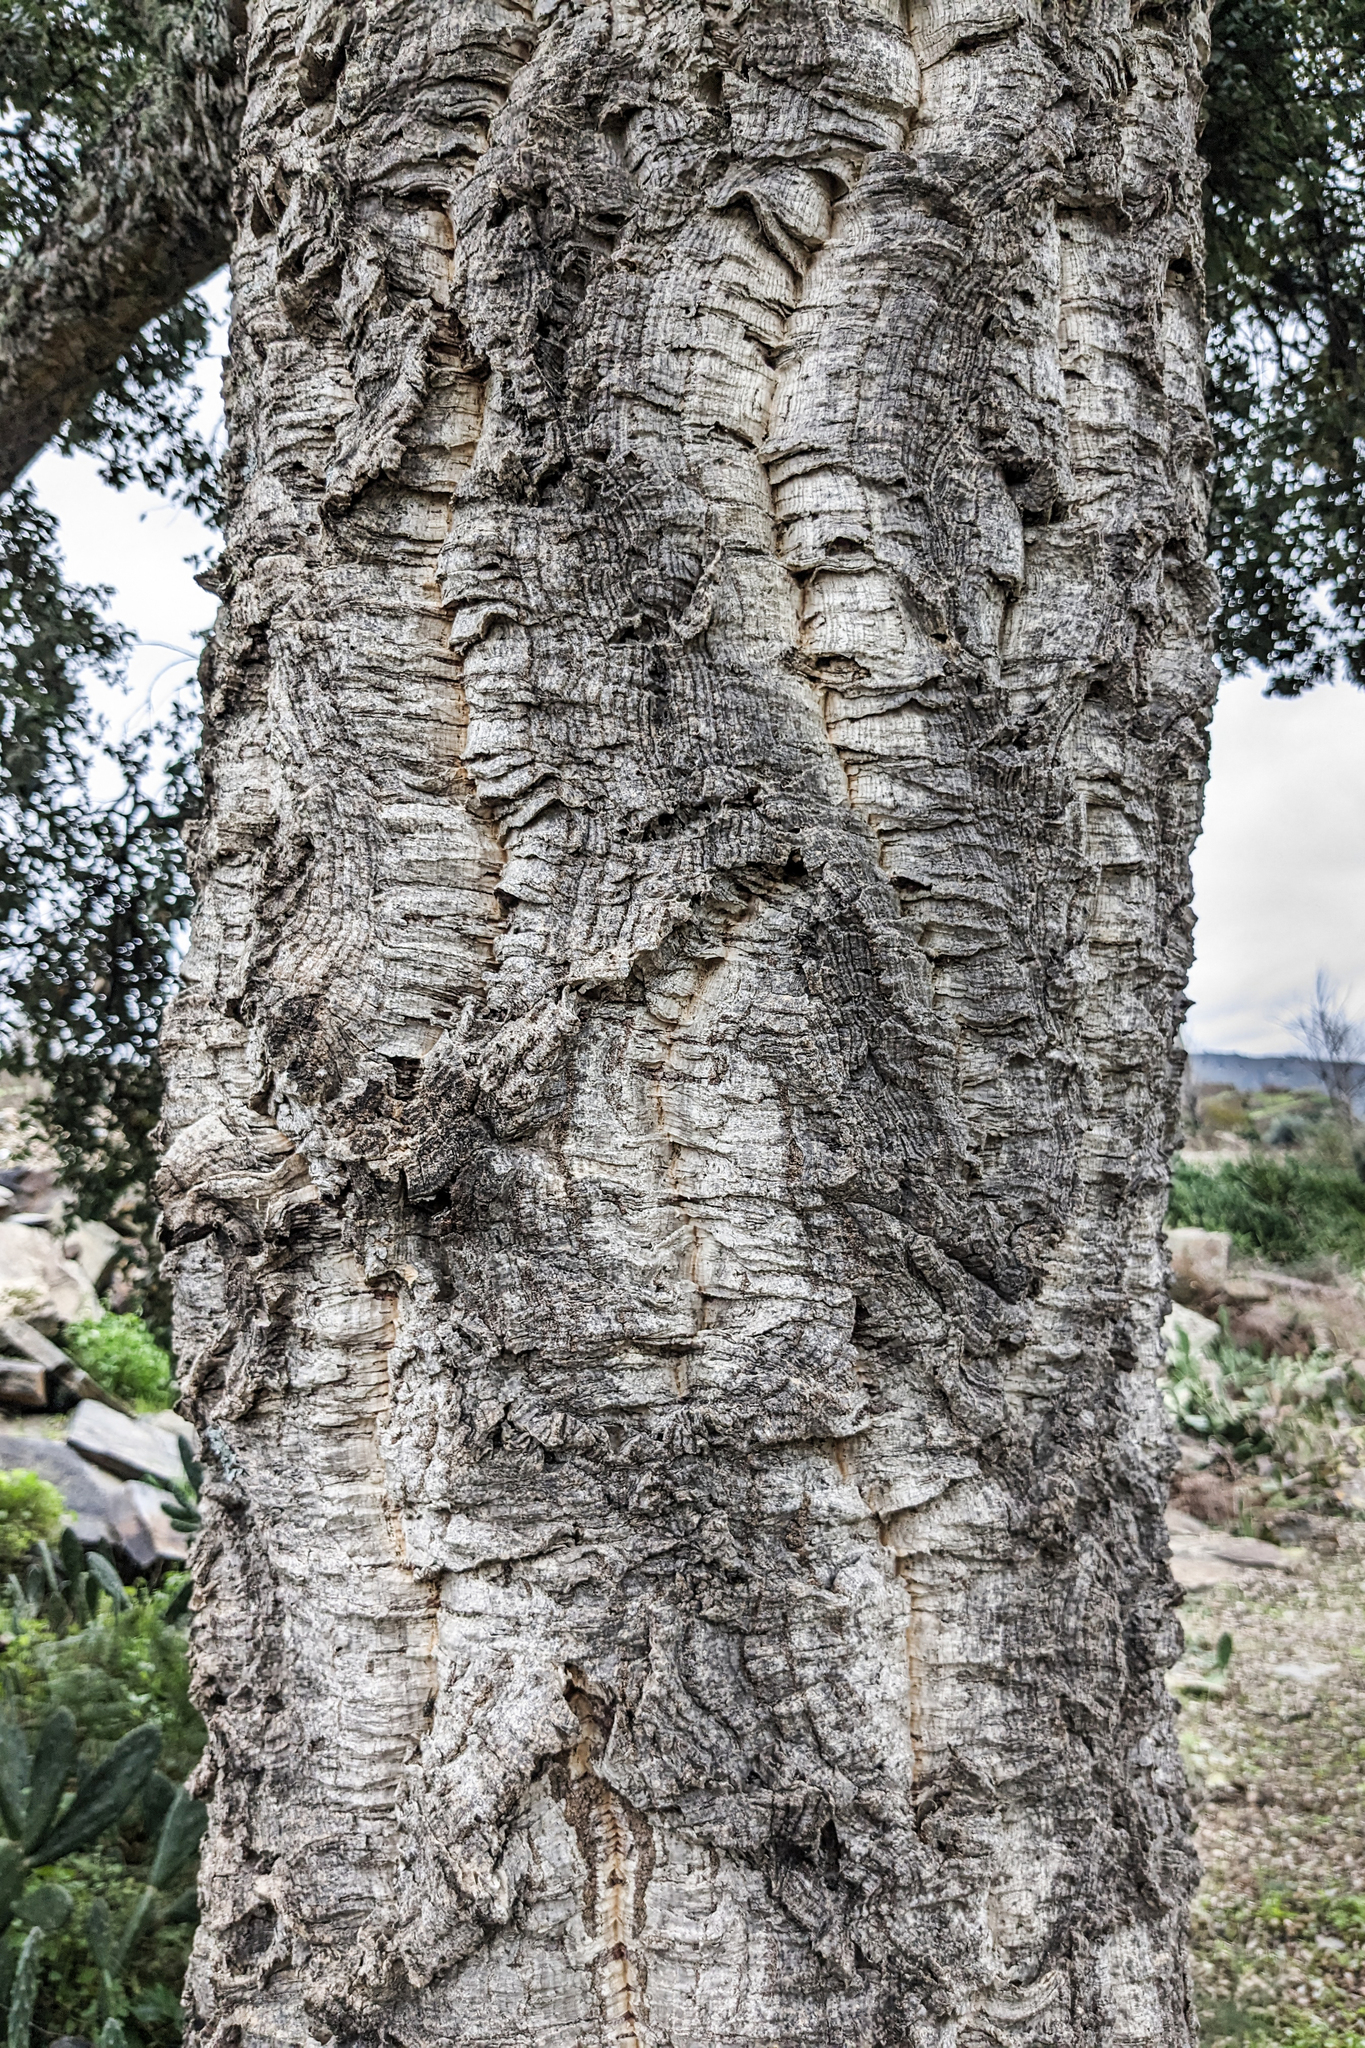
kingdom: Plantae
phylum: Tracheophyta
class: Magnoliopsida
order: Fagales
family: Fagaceae
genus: Quercus
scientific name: Quercus suber
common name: Cork oak
